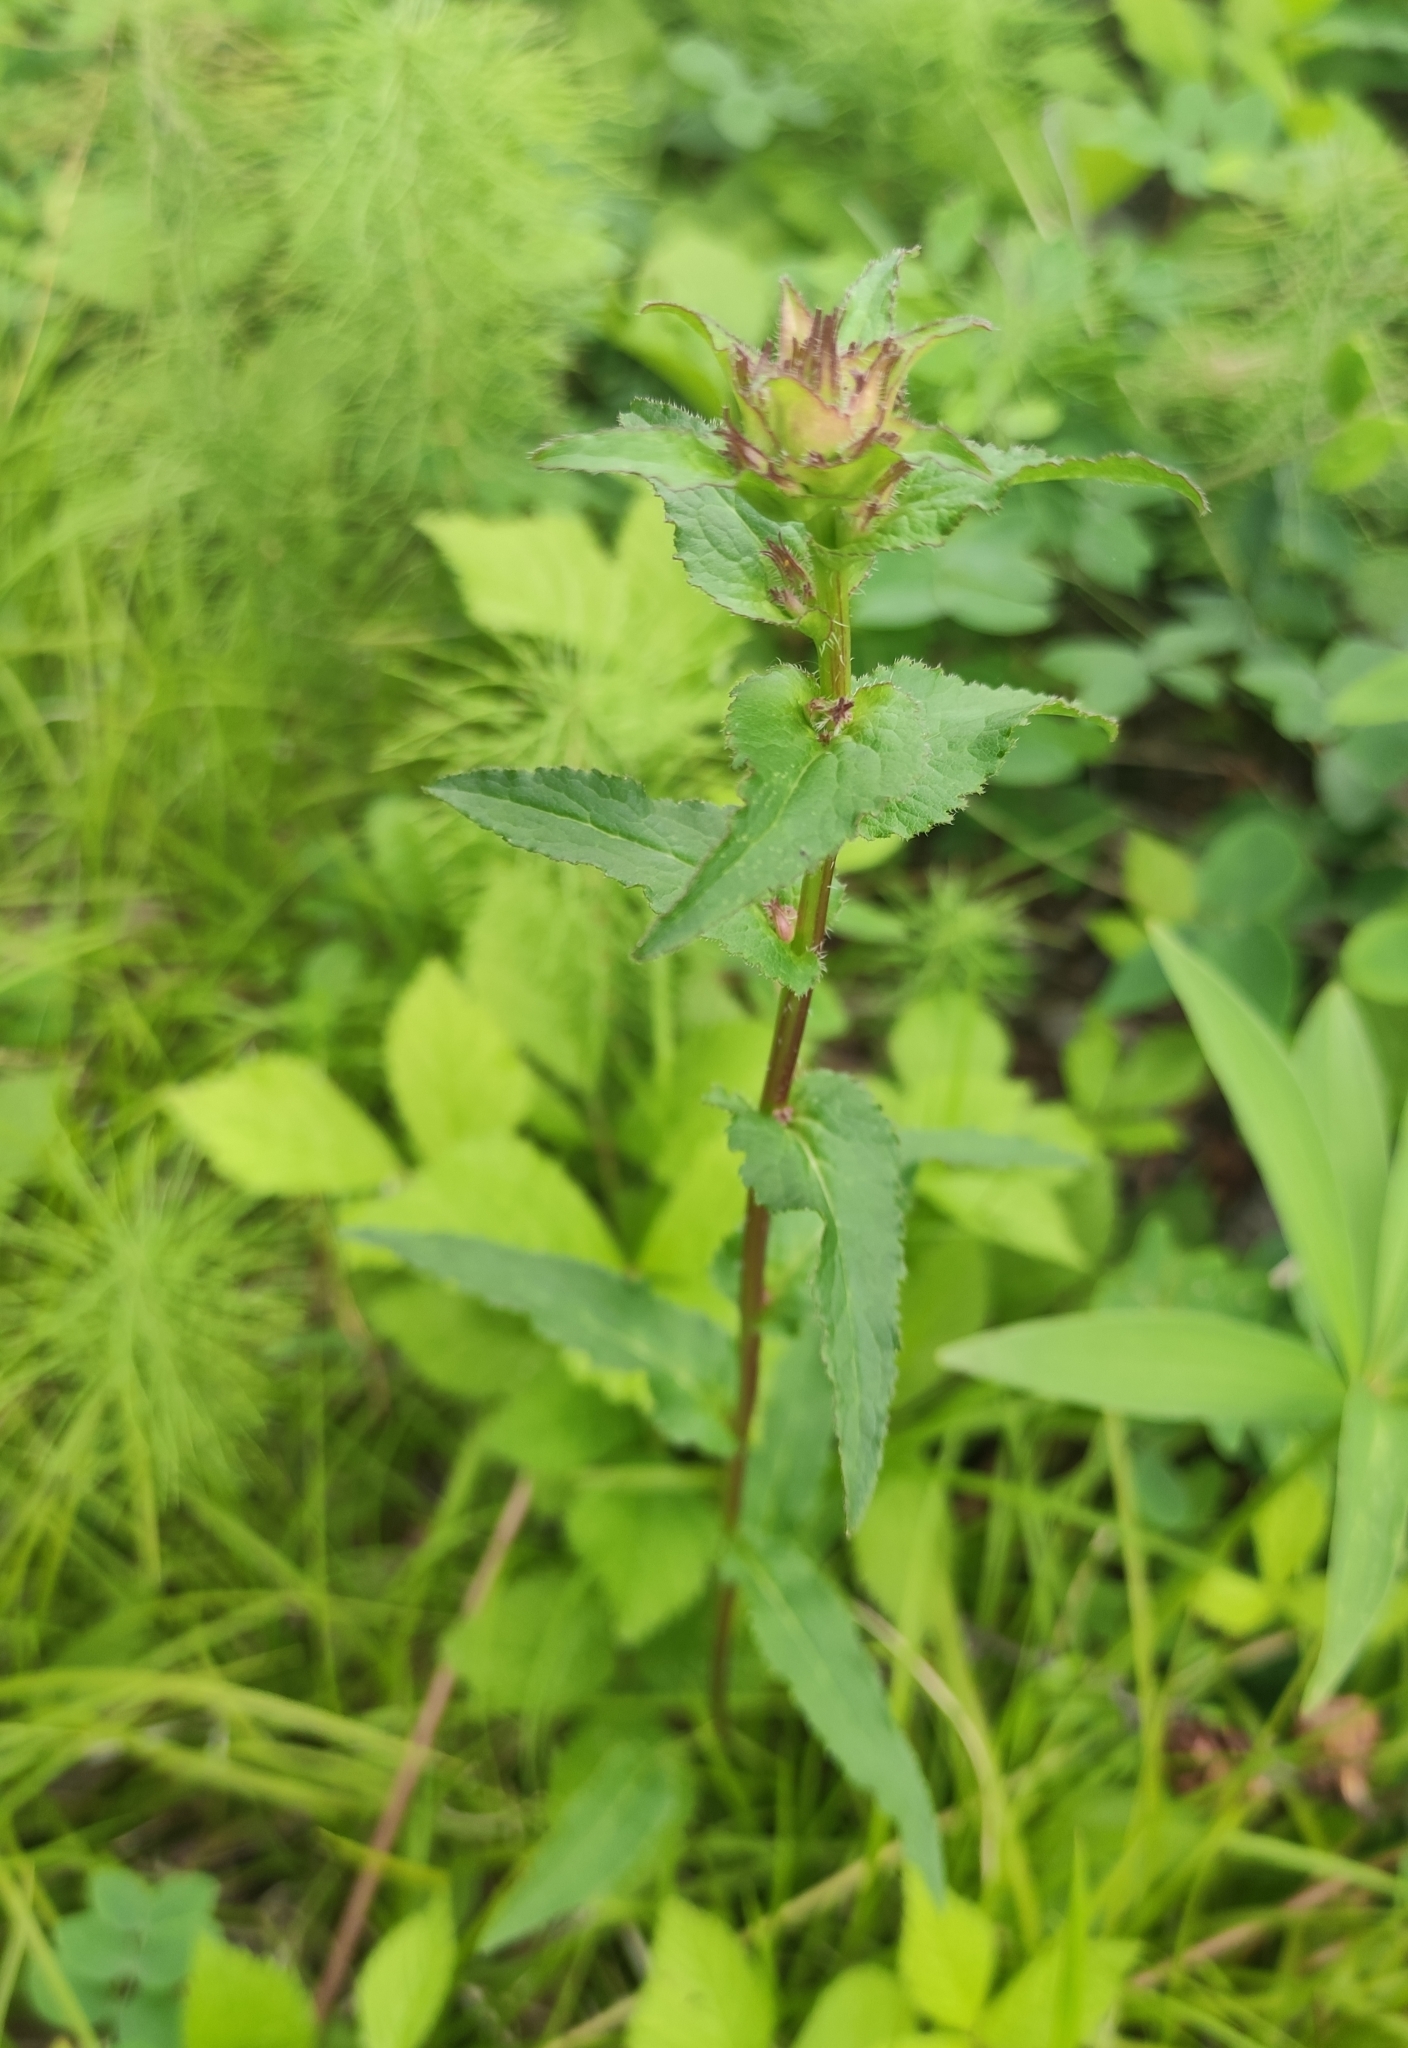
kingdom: Plantae
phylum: Tracheophyta
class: Magnoliopsida
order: Asterales
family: Campanulaceae
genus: Campanula
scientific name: Campanula glomerata
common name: Clustered bellflower
